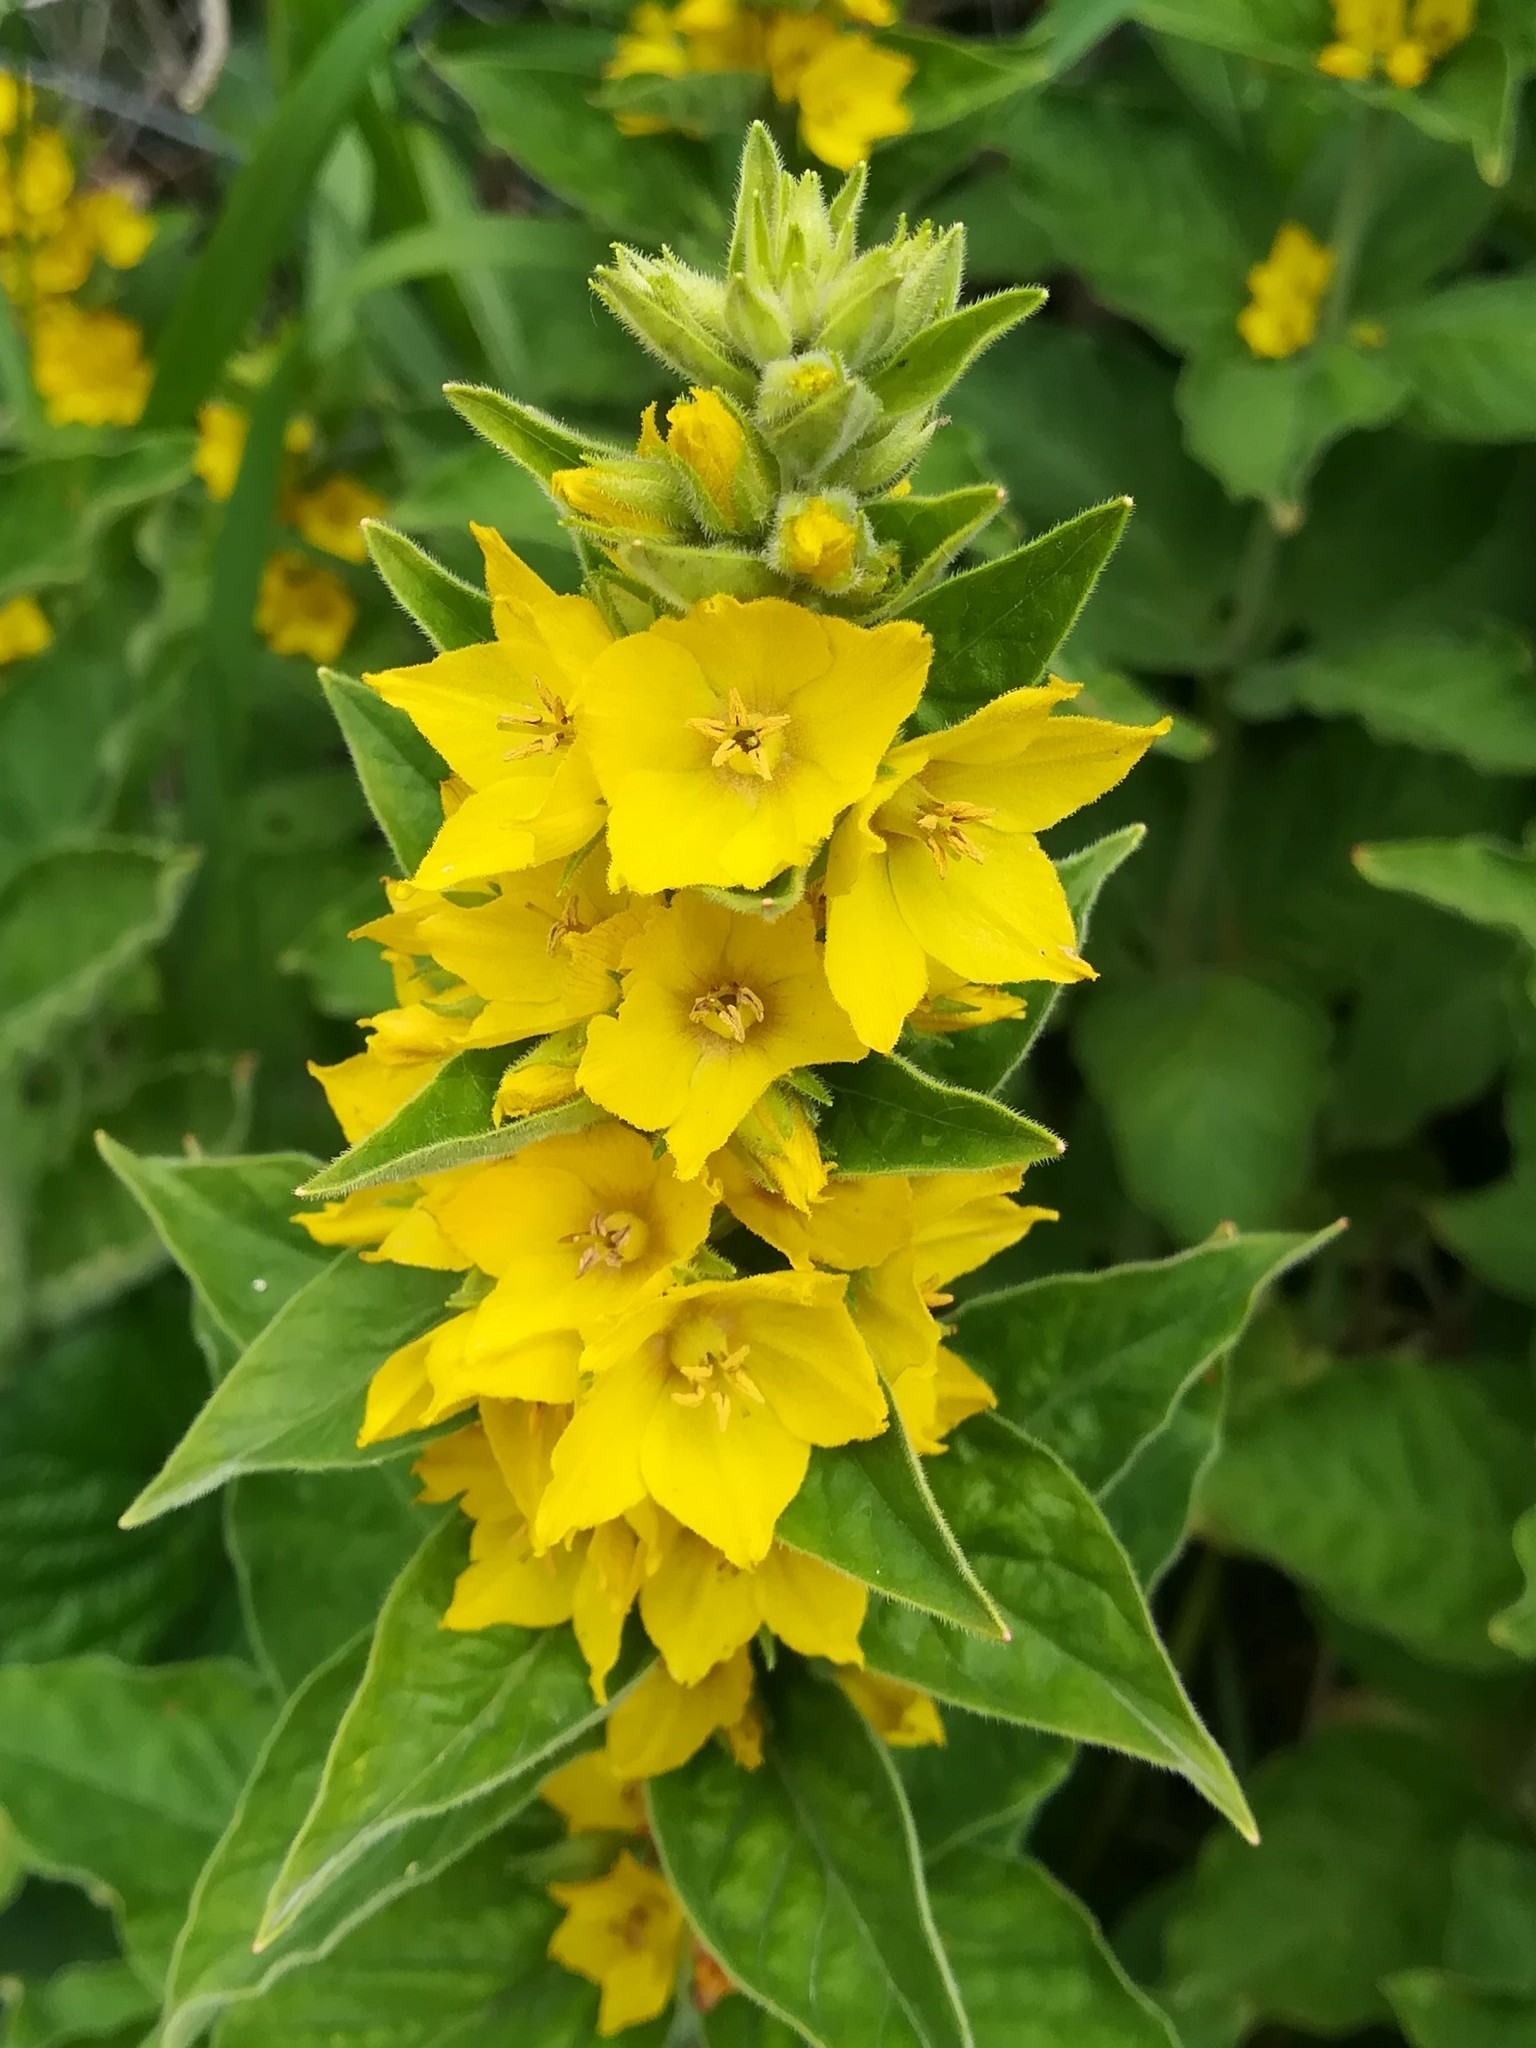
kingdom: Plantae
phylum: Tracheophyta
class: Magnoliopsida
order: Ericales
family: Primulaceae
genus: Lysimachia
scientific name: Lysimachia punctata
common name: Dotted loosestrife
